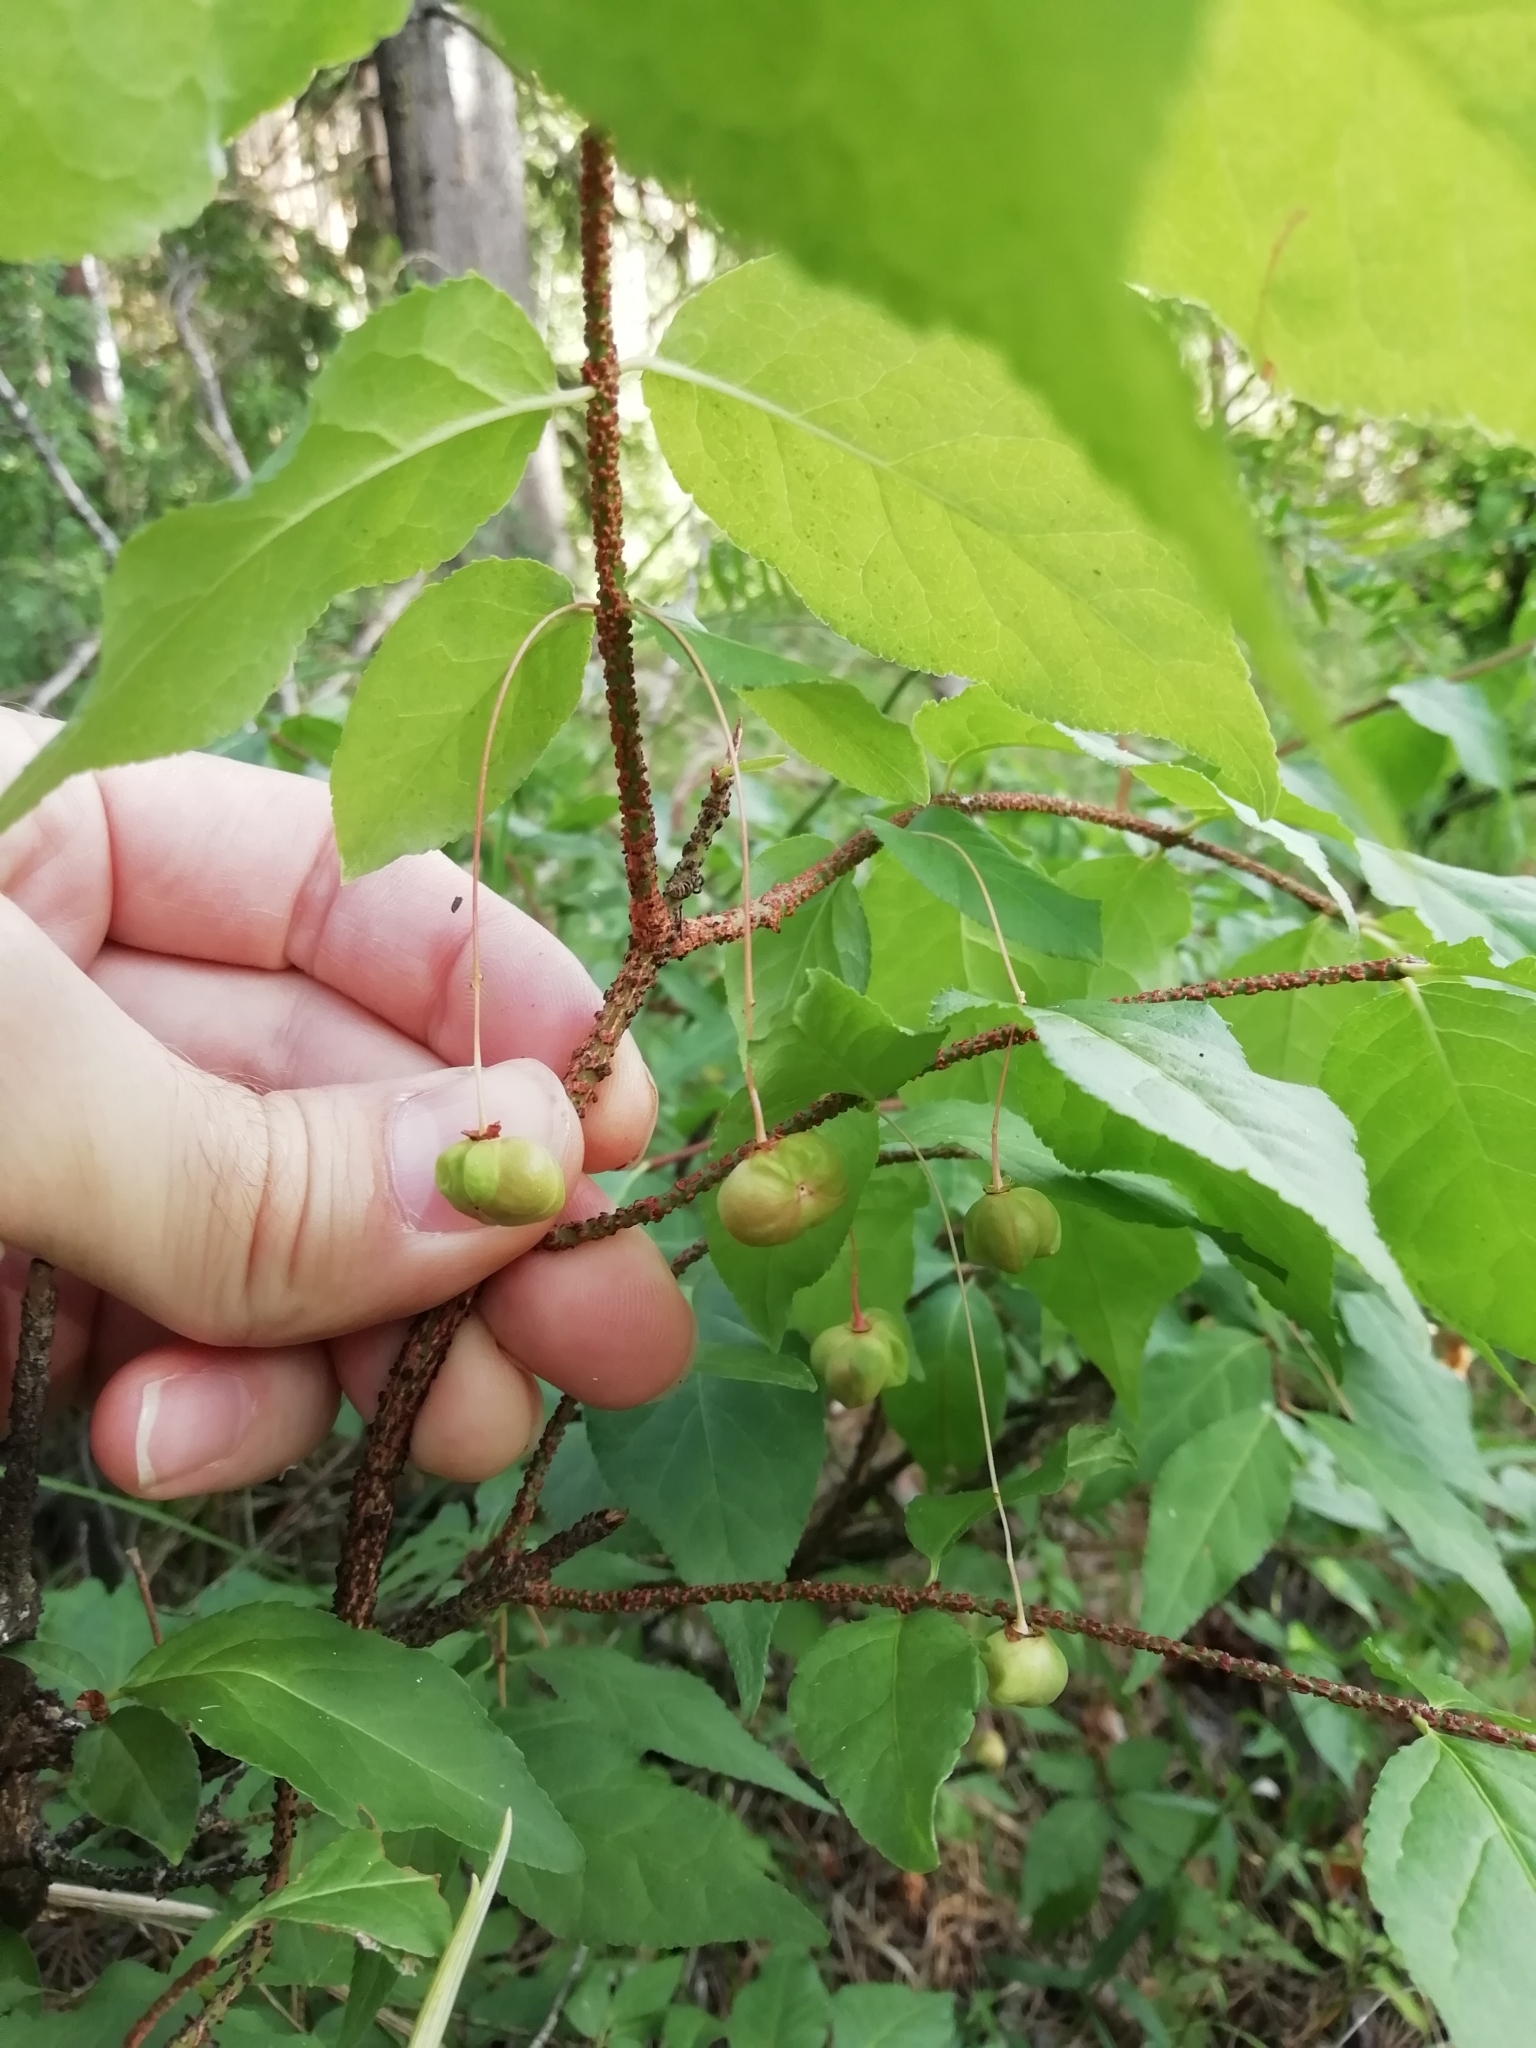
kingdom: Plantae
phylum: Tracheophyta
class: Magnoliopsida
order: Celastrales
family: Celastraceae
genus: Euonymus
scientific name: Euonymus verrucosus
